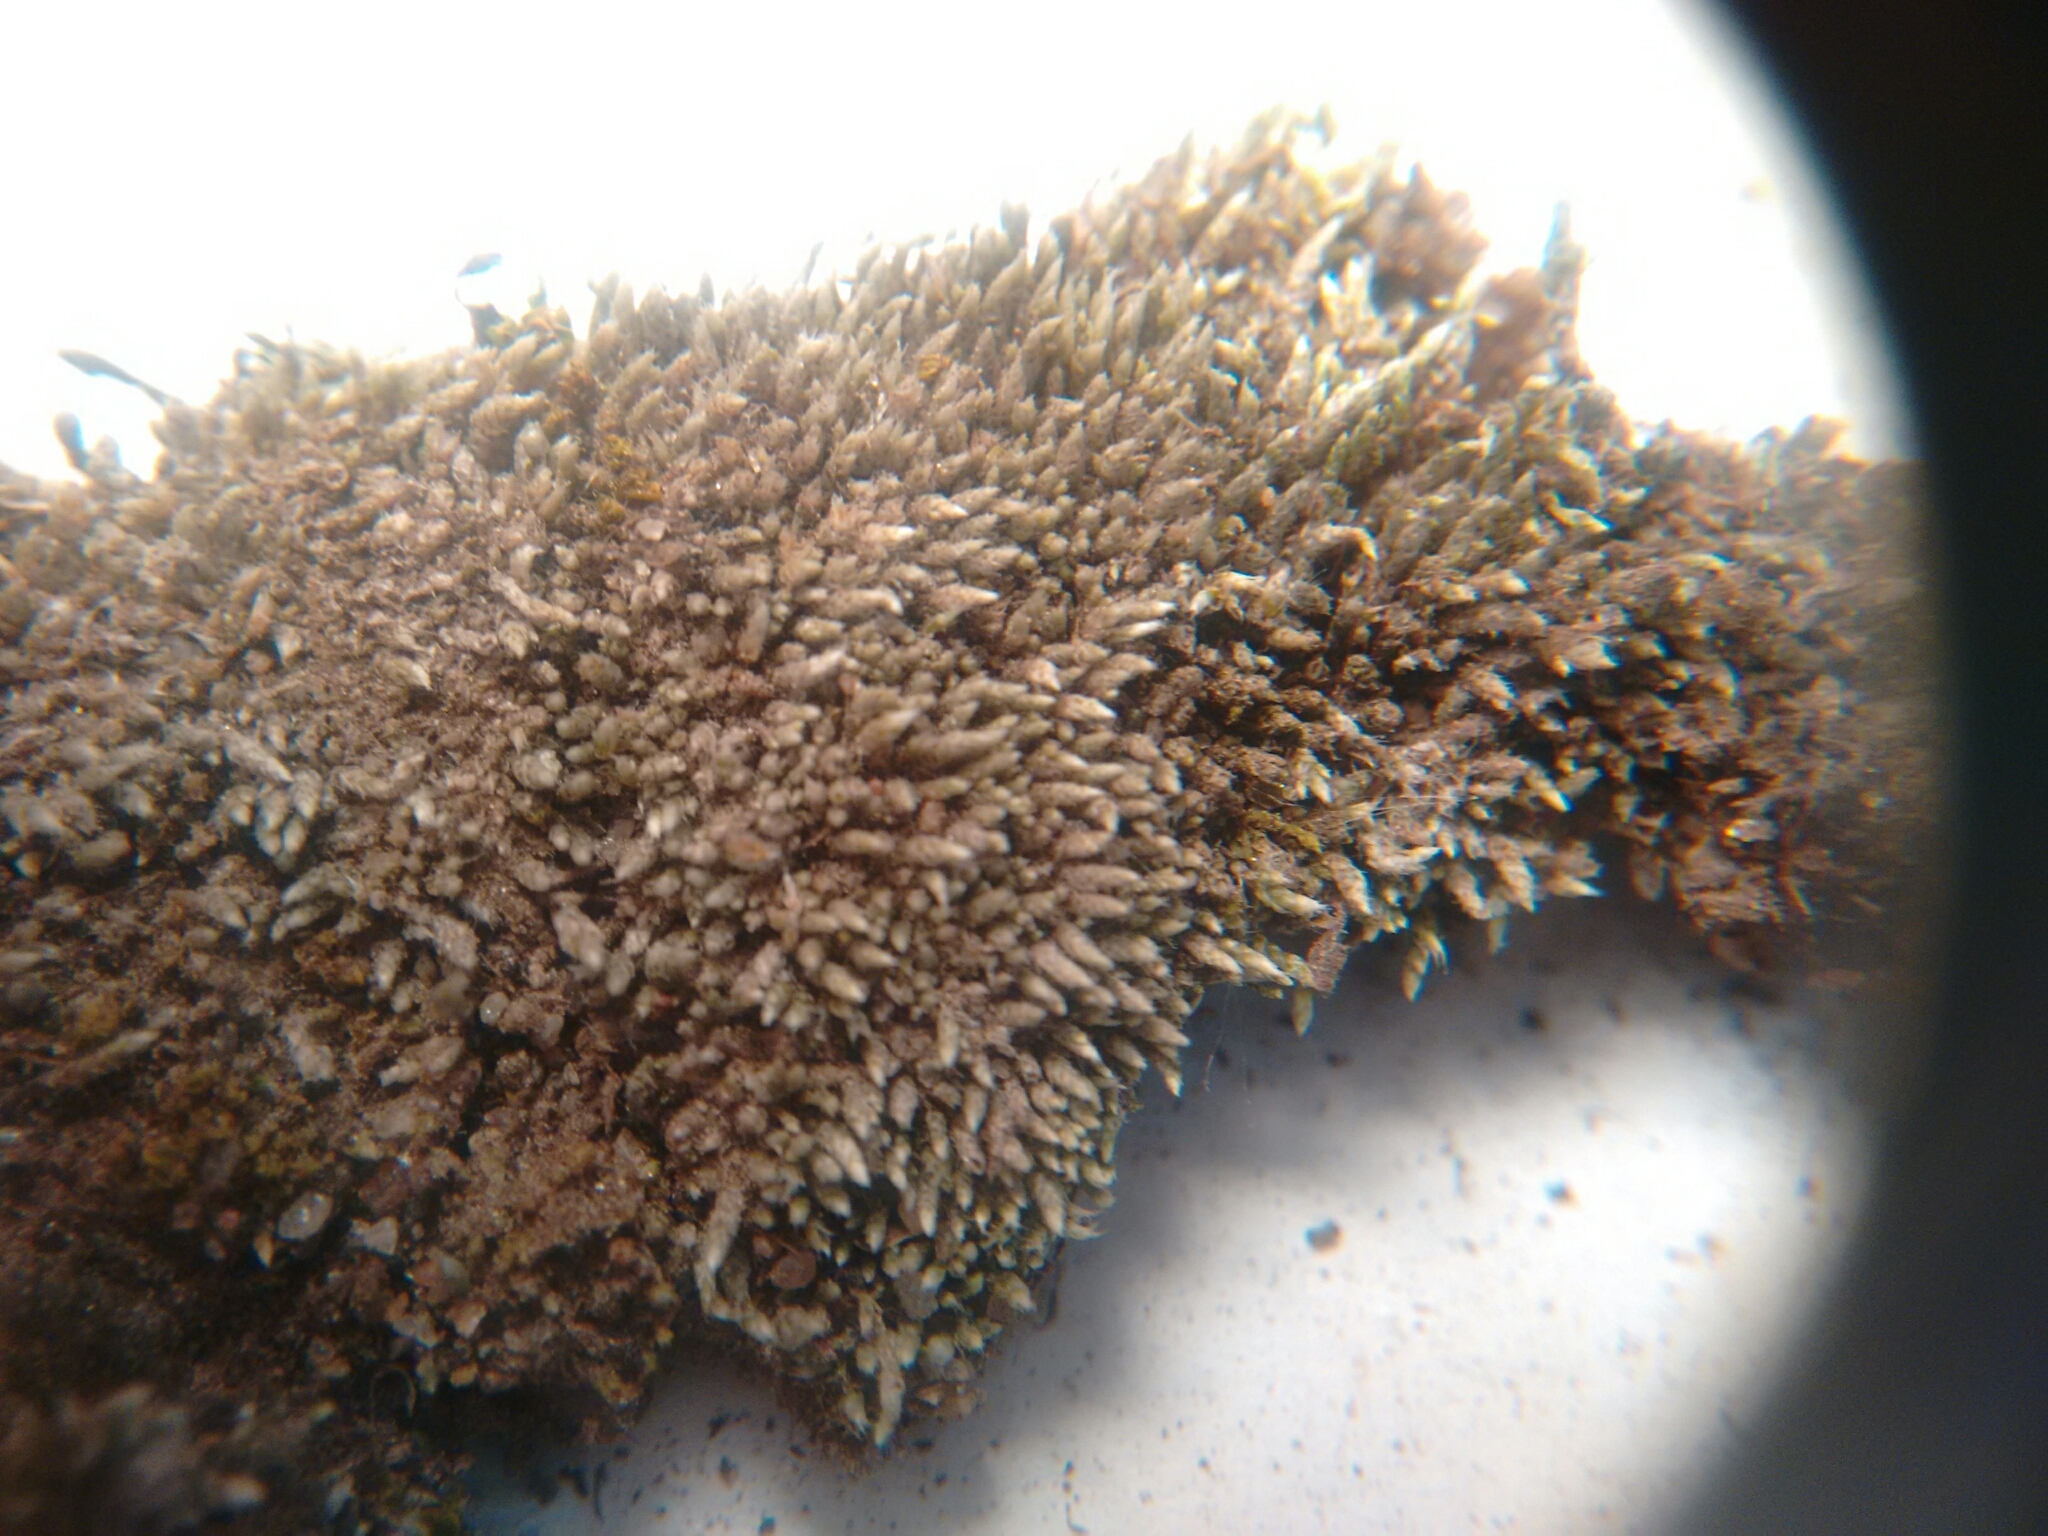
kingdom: Plantae
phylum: Bryophyta
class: Bryopsida
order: Bryales
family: Bryaceae
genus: Bryum
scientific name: Bryum argenteum
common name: Silver-moss
